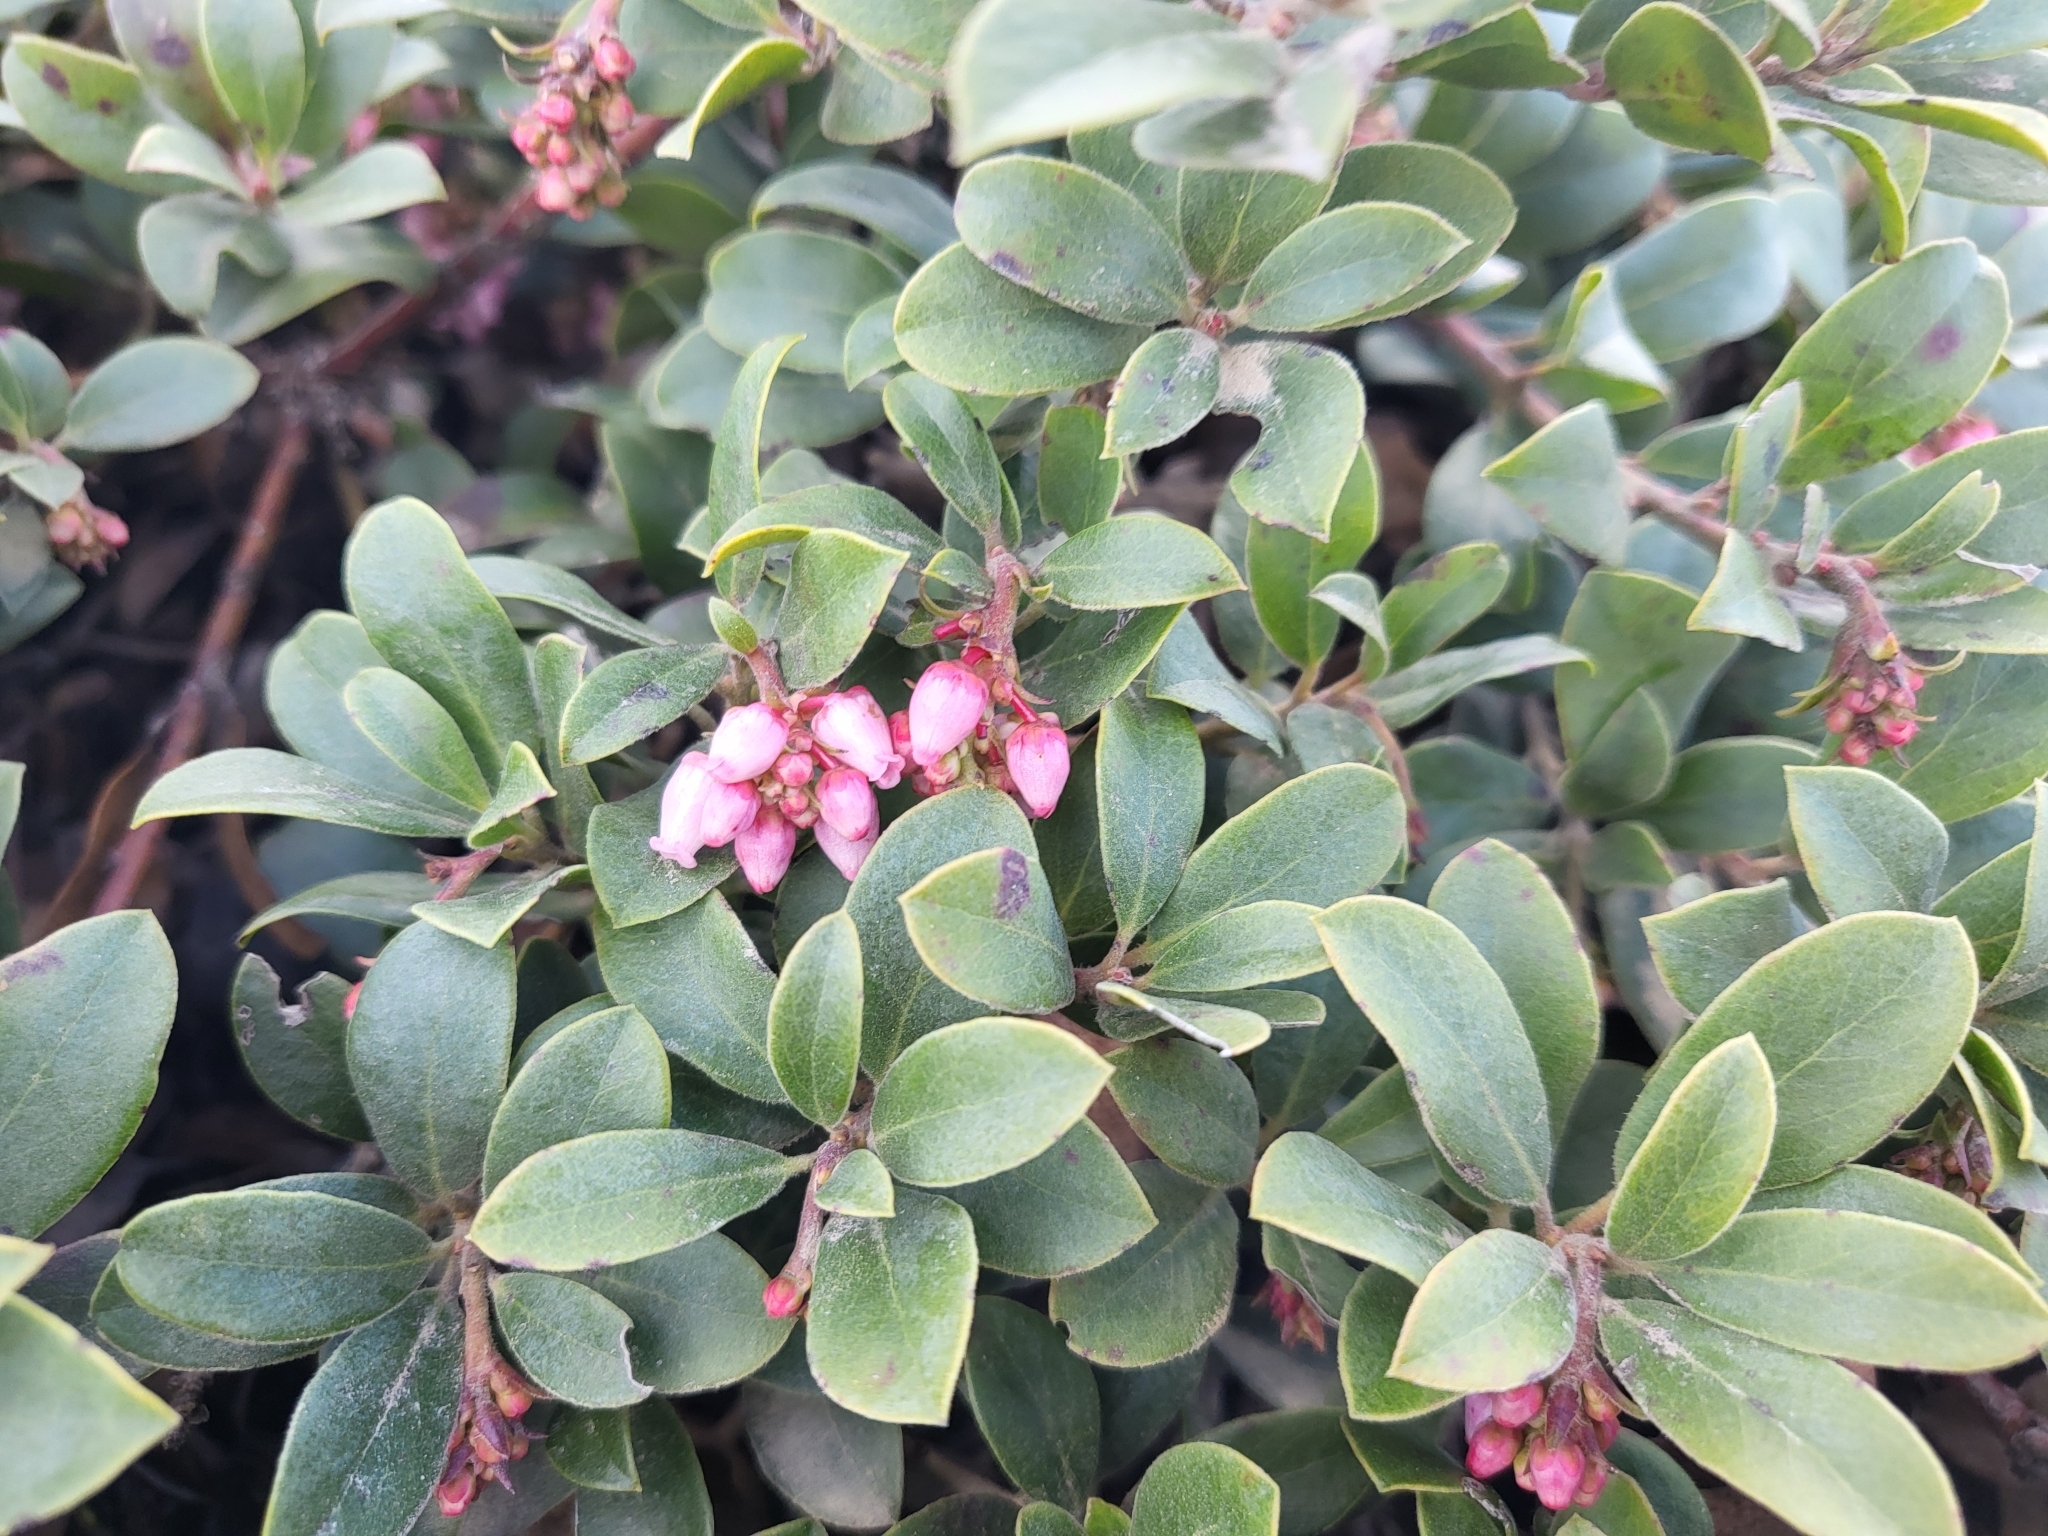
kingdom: Plantae
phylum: Tracheophyta
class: Magnoliopsida
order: Ericales
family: Ericaceae
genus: Arctostaphylos
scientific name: Arctostaphylos uva-ursi
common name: Bearberry
